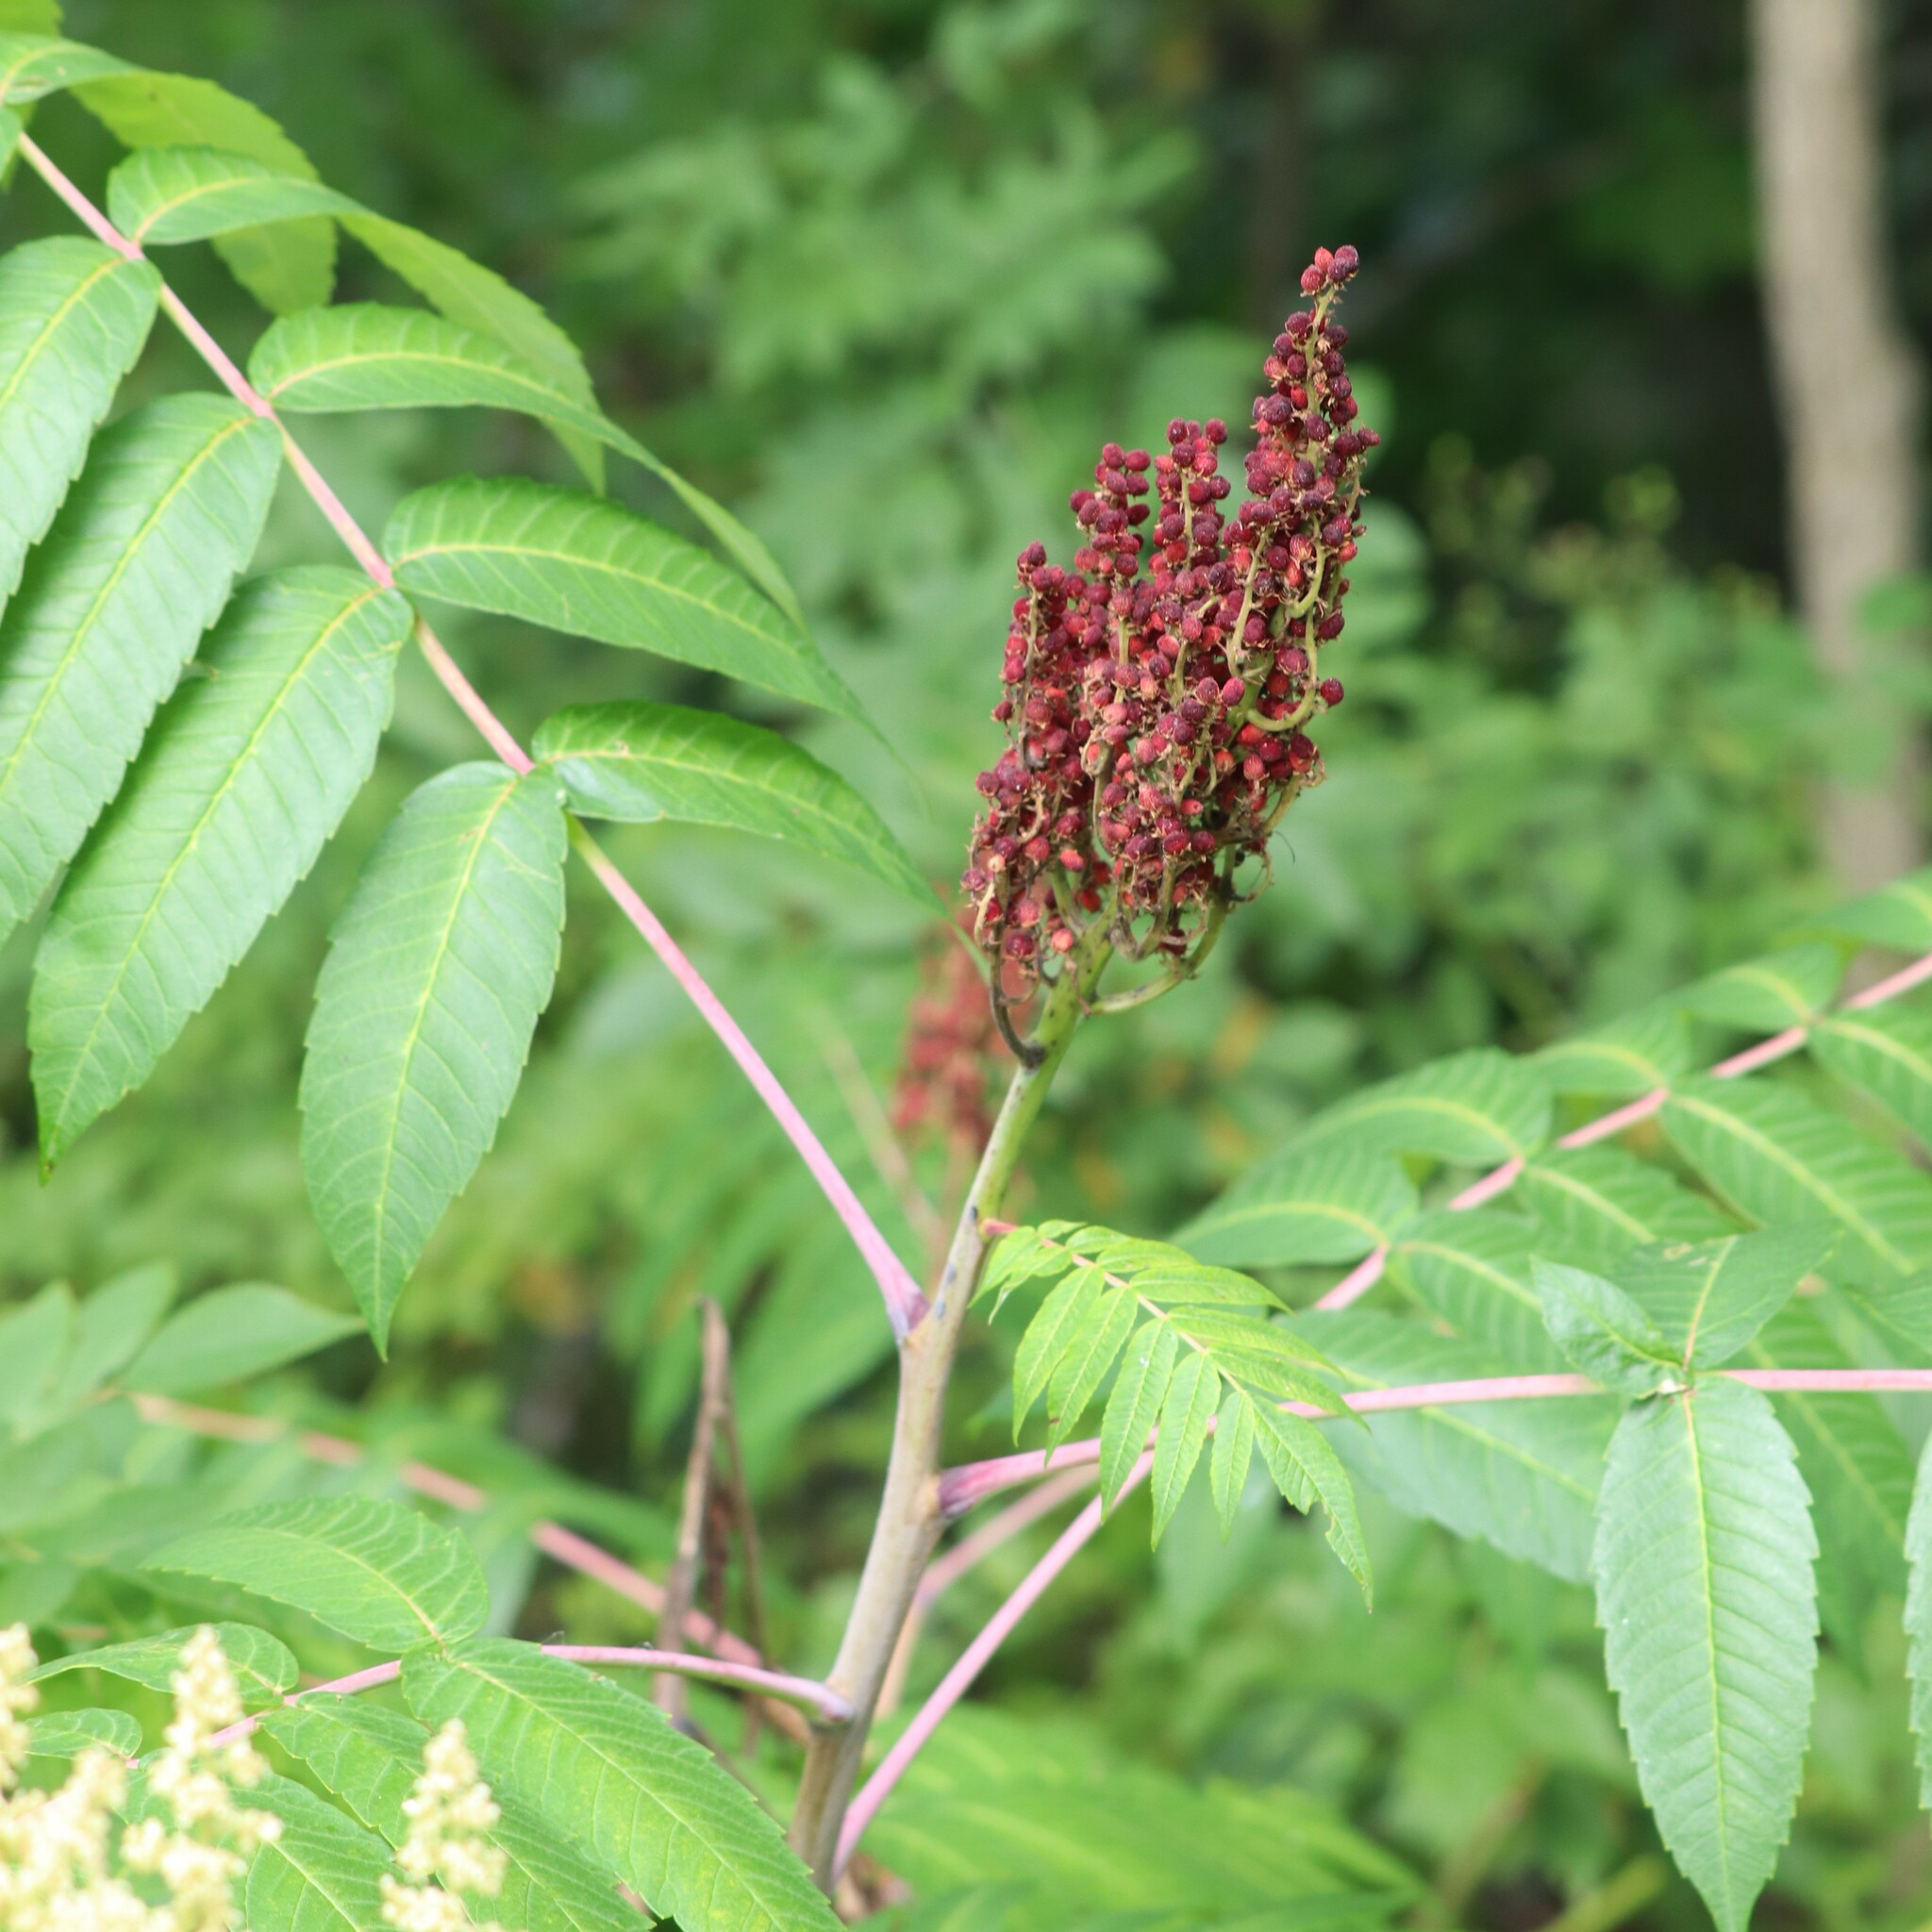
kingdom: Plantae
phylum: Tracheophyta
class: Magnoliopsida
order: Sapindales
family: Anacardiaceae
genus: Rhus
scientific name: Rhus glabra
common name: Scarlet sumac
